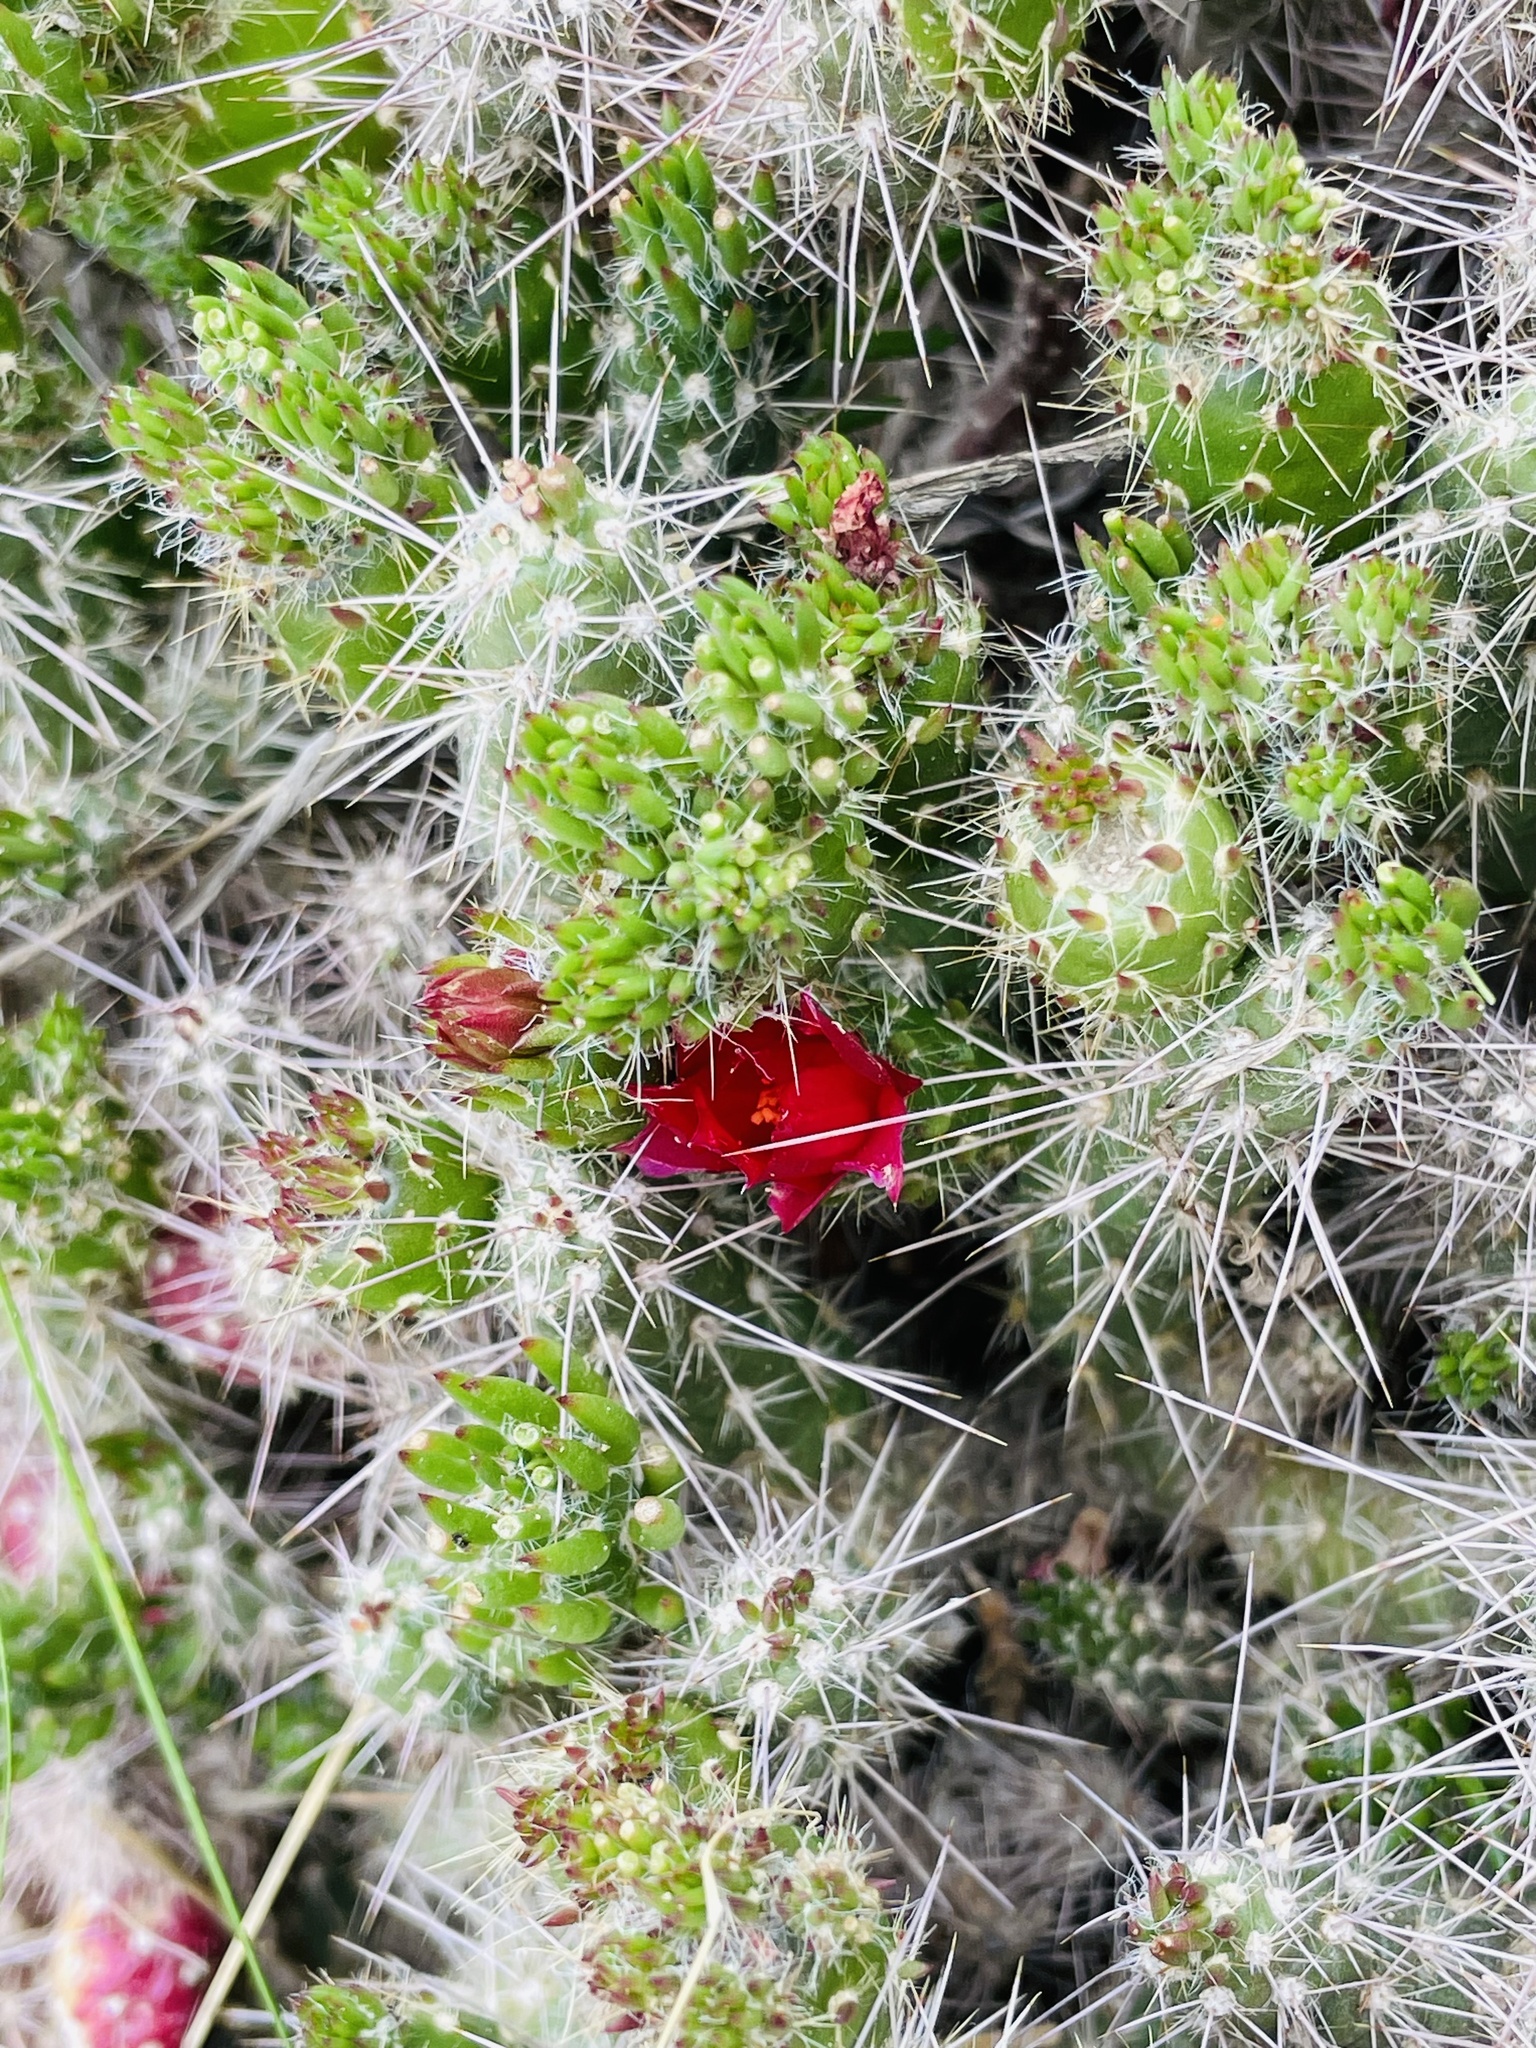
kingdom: Plantae
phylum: Tracheophyta
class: Magnoliopsida
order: Caryophyllales
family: Cactaceae
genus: Austrocylindropuntia
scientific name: Austrocylindropuntia shaferi
